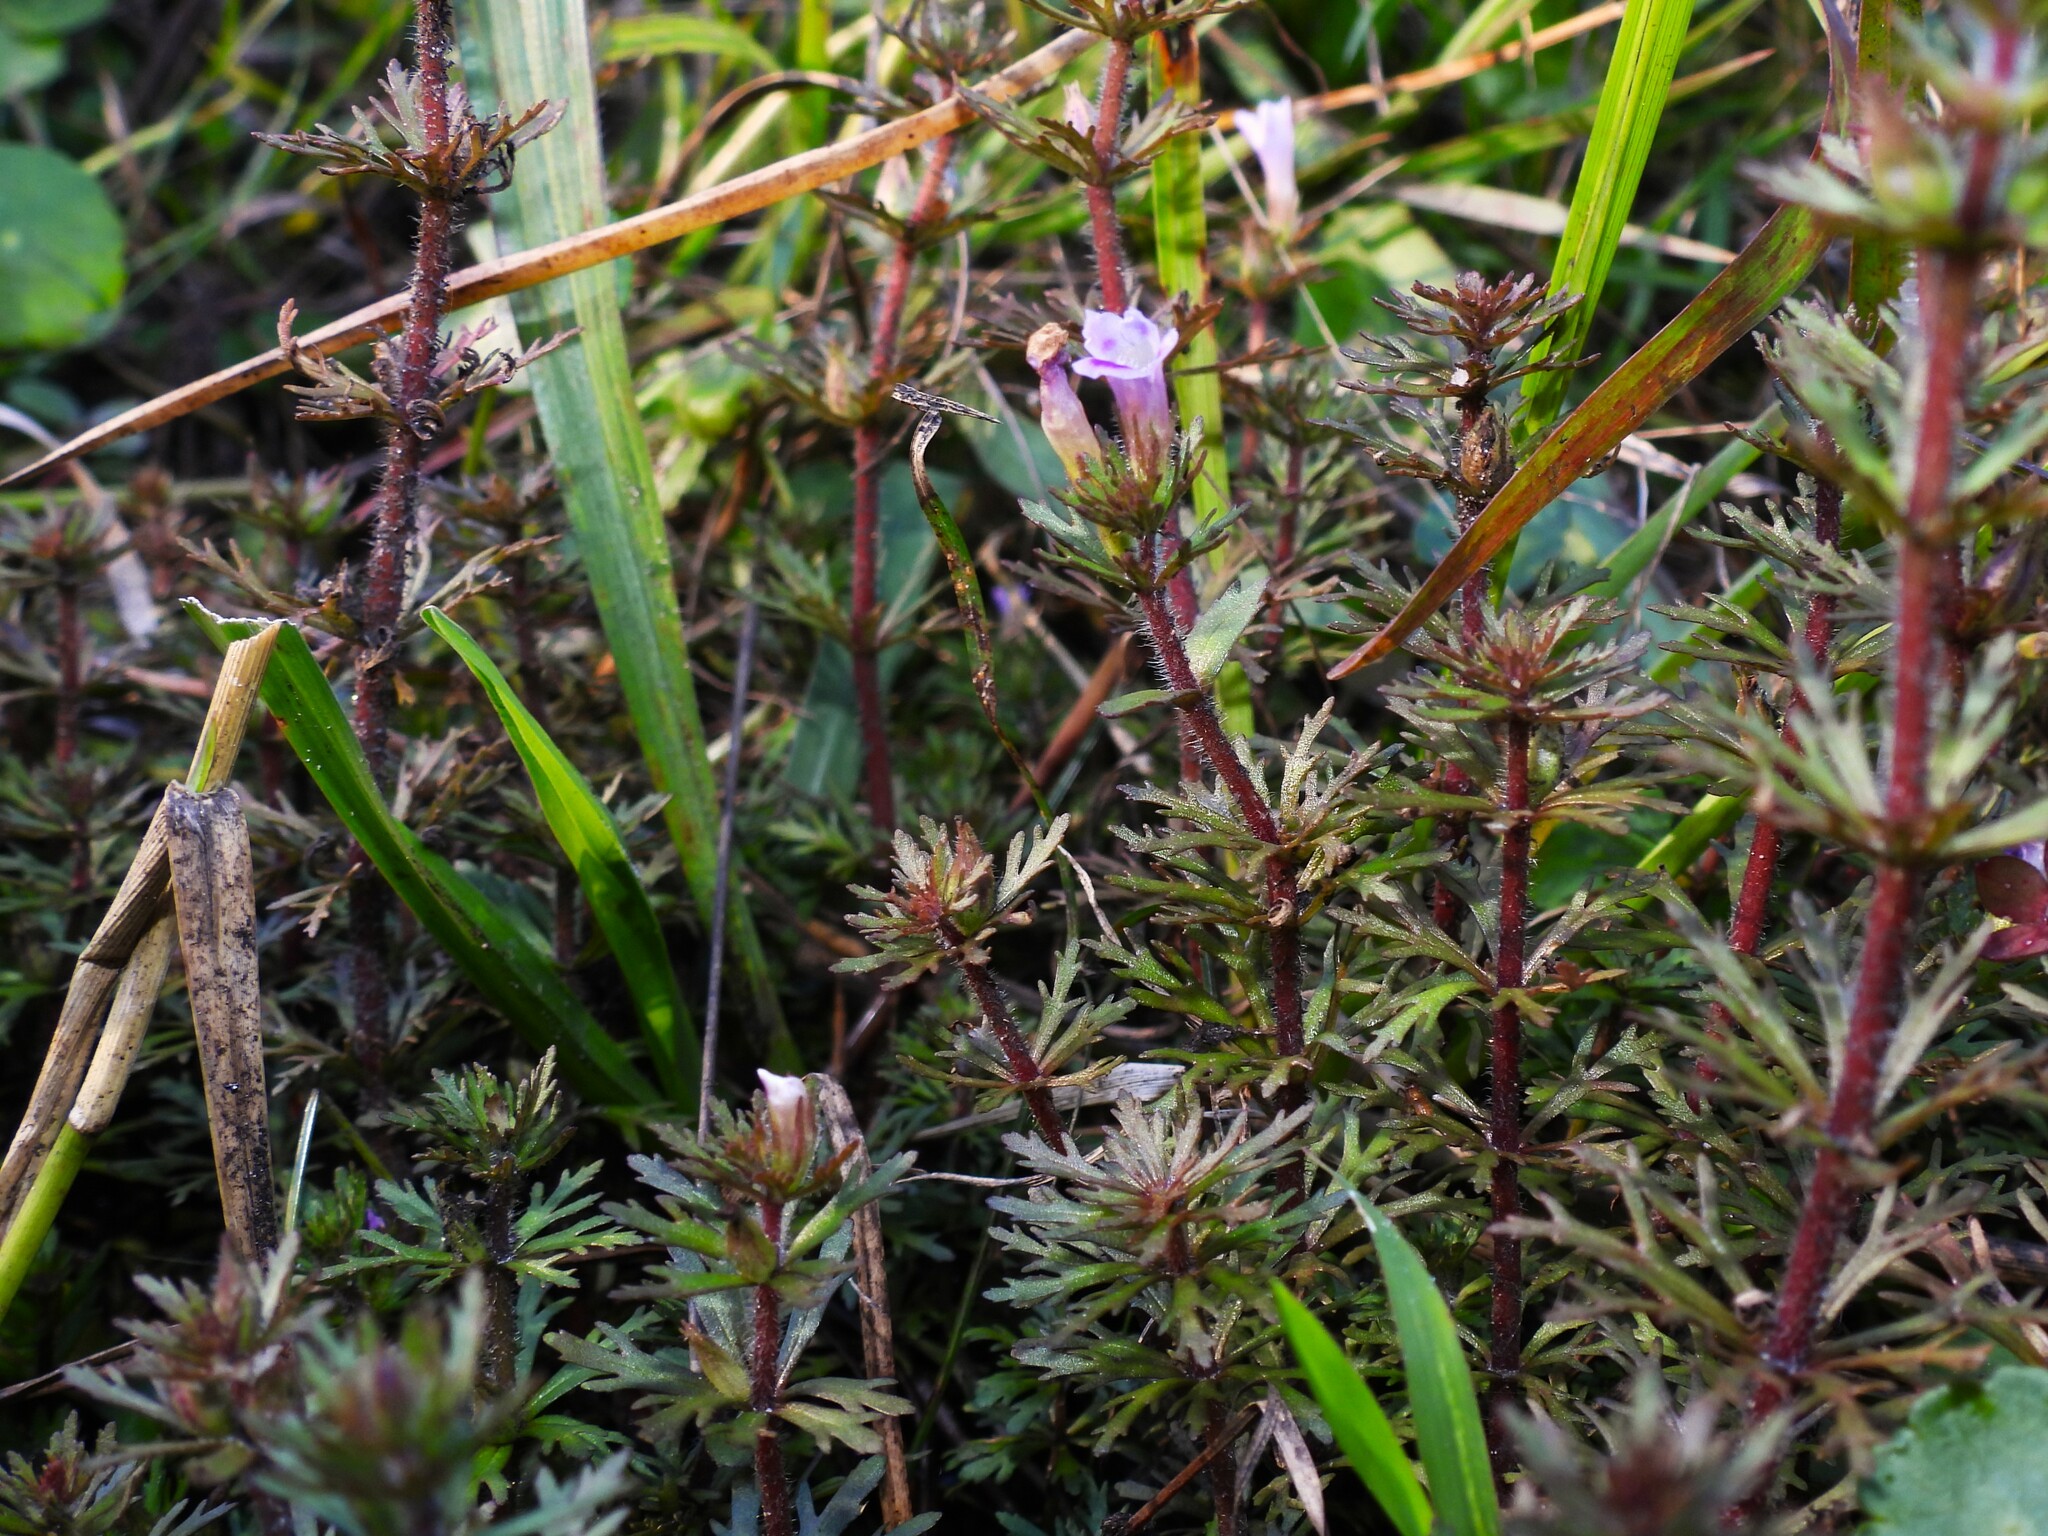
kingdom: Plantae
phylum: Tracheophyta
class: Magnoliopsida
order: Lamiales
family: Plantaginaceae
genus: Limnophila
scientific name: Limnophila sessiliflora
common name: Asian marshweed
